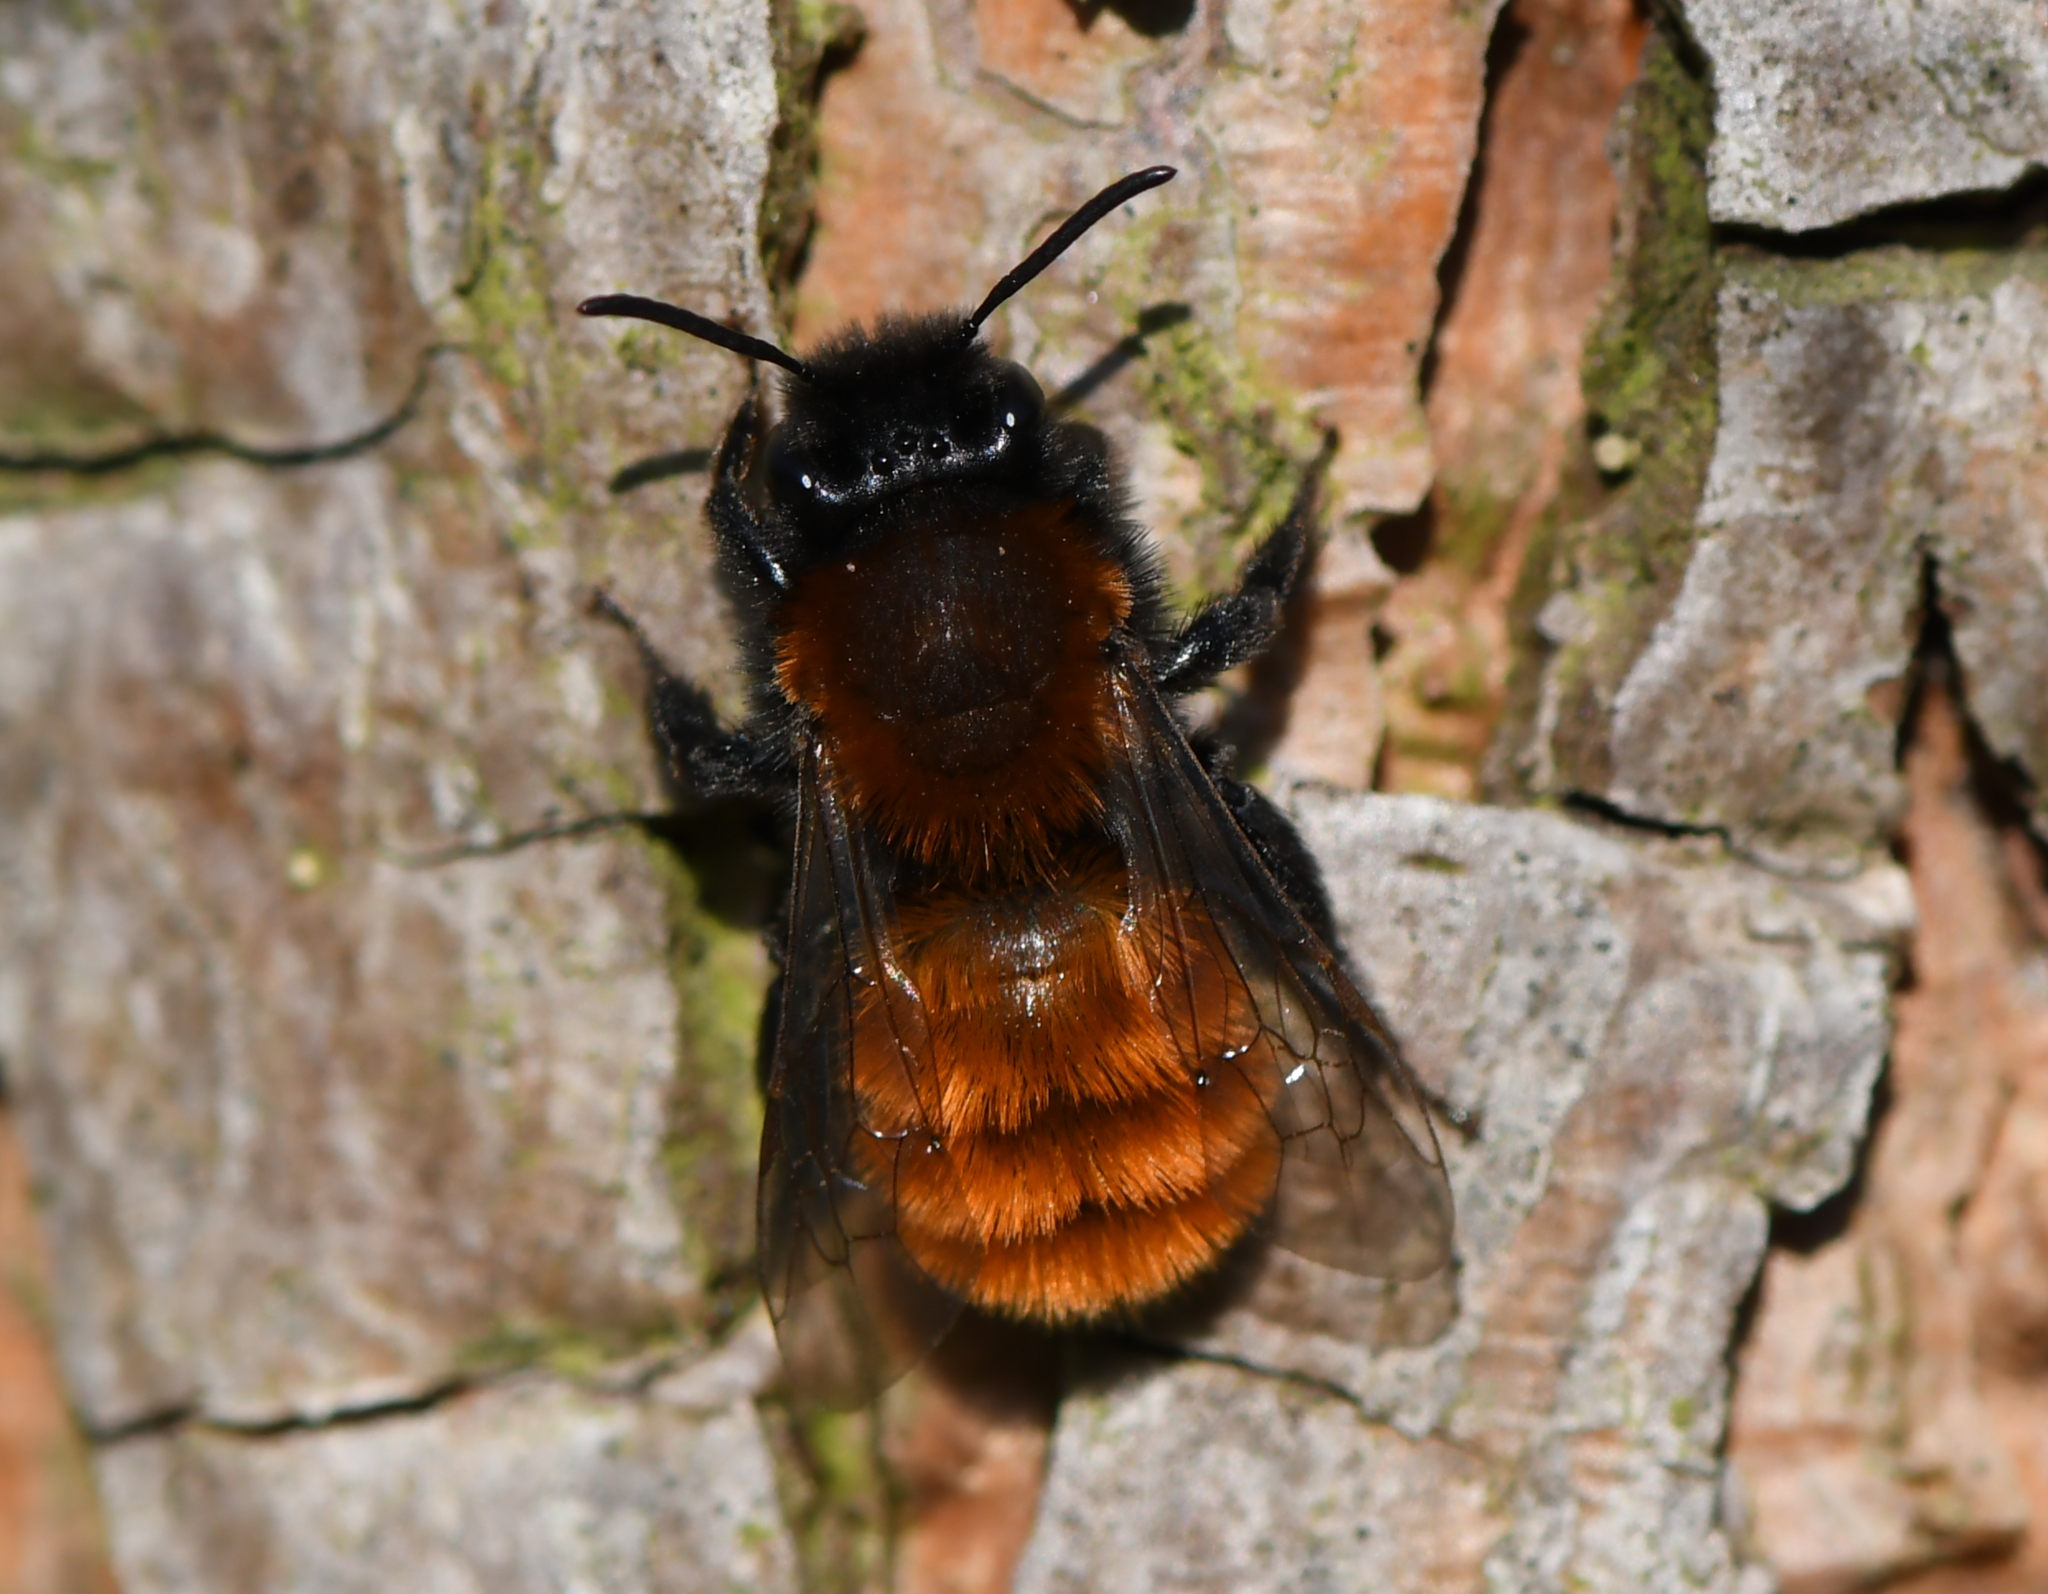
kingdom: Animalia
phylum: Arthropoda
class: Insecta
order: Hymenoptera
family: Andrenidae
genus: Andrena
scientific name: Andrena fulva
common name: Tawny mining bee
